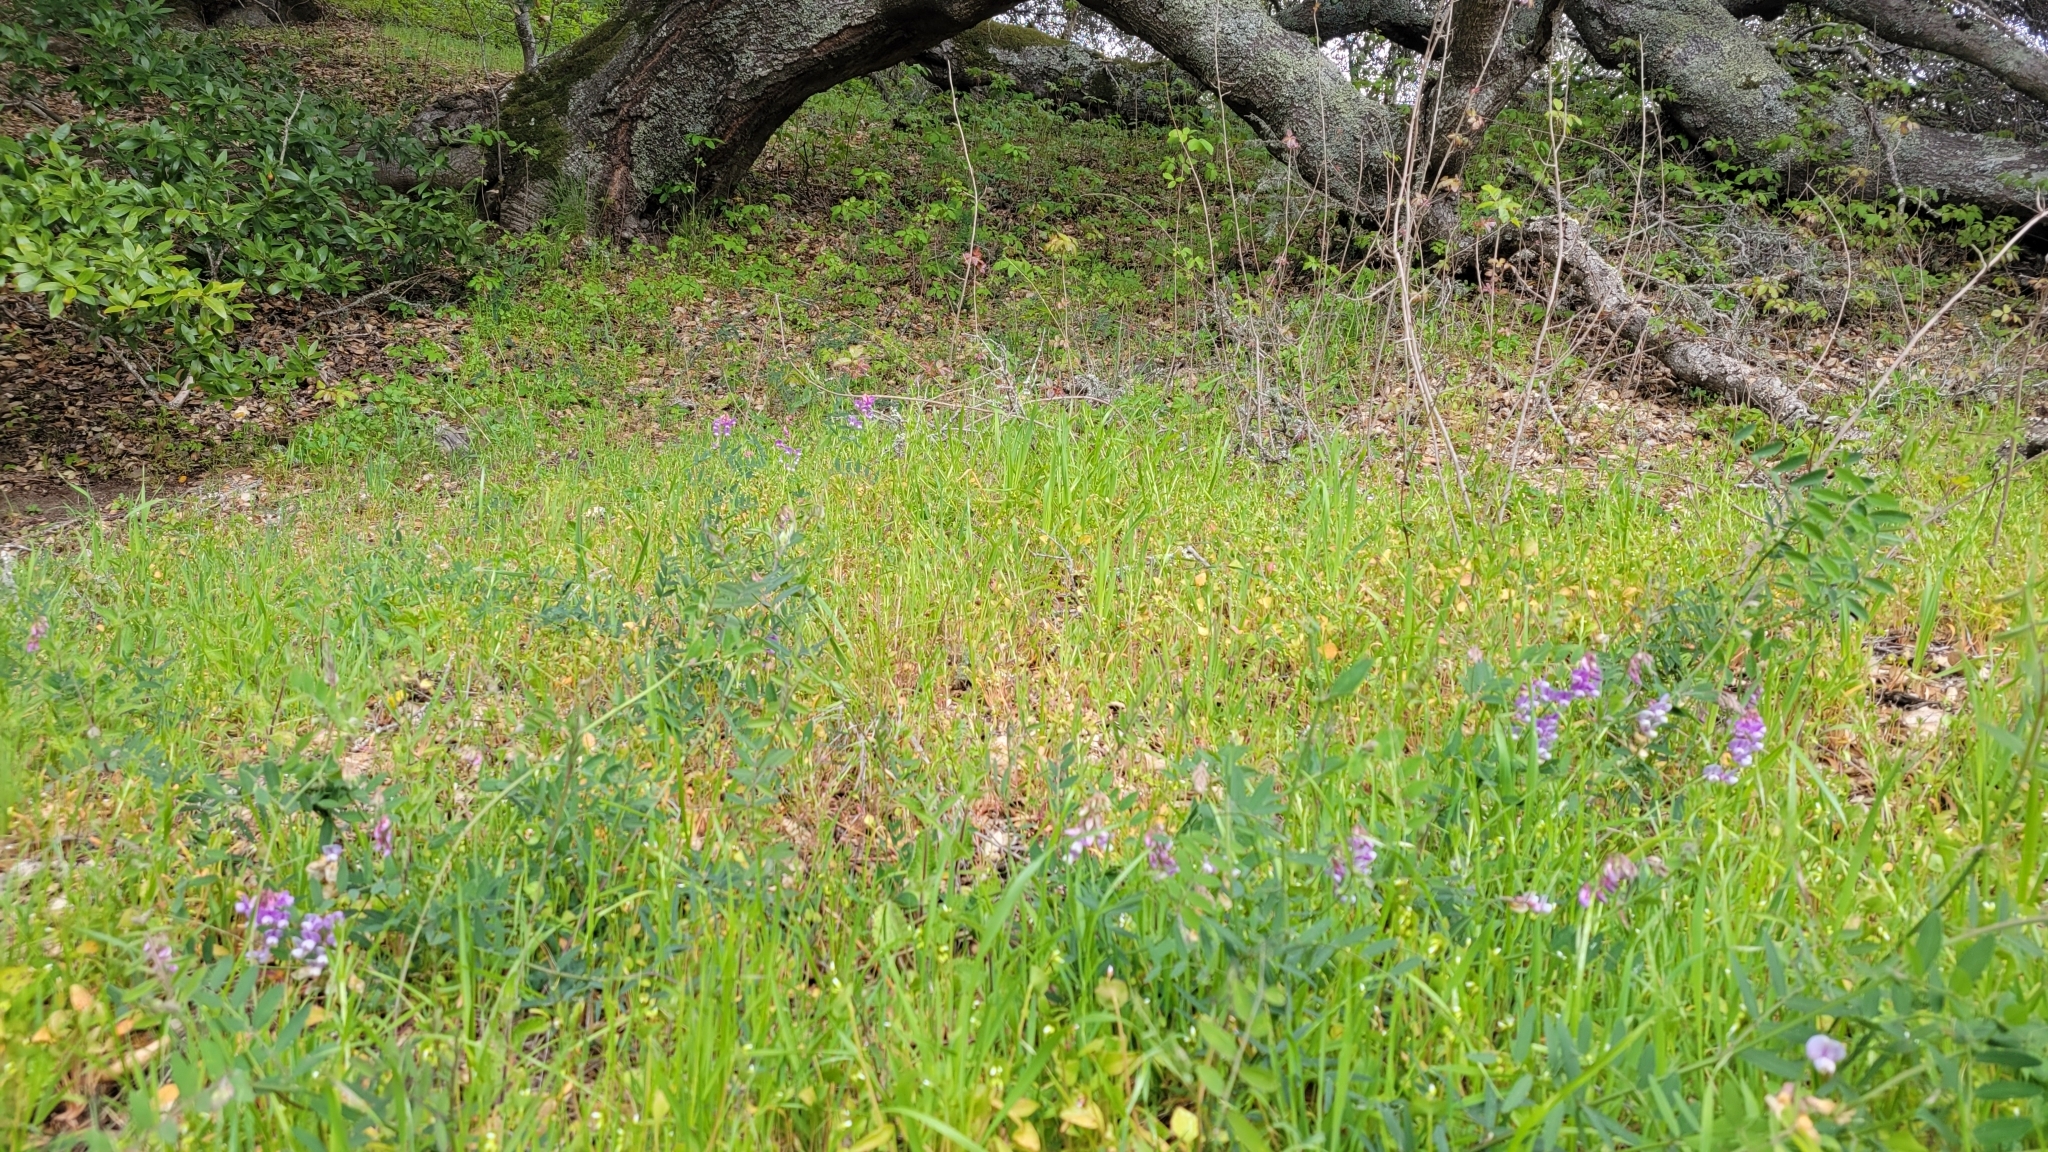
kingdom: Plantae
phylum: Tracheophyta
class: Magnoliopsida
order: Fabales
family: Fabaceae
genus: Lathyrus
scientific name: Lathyrus vestitus
